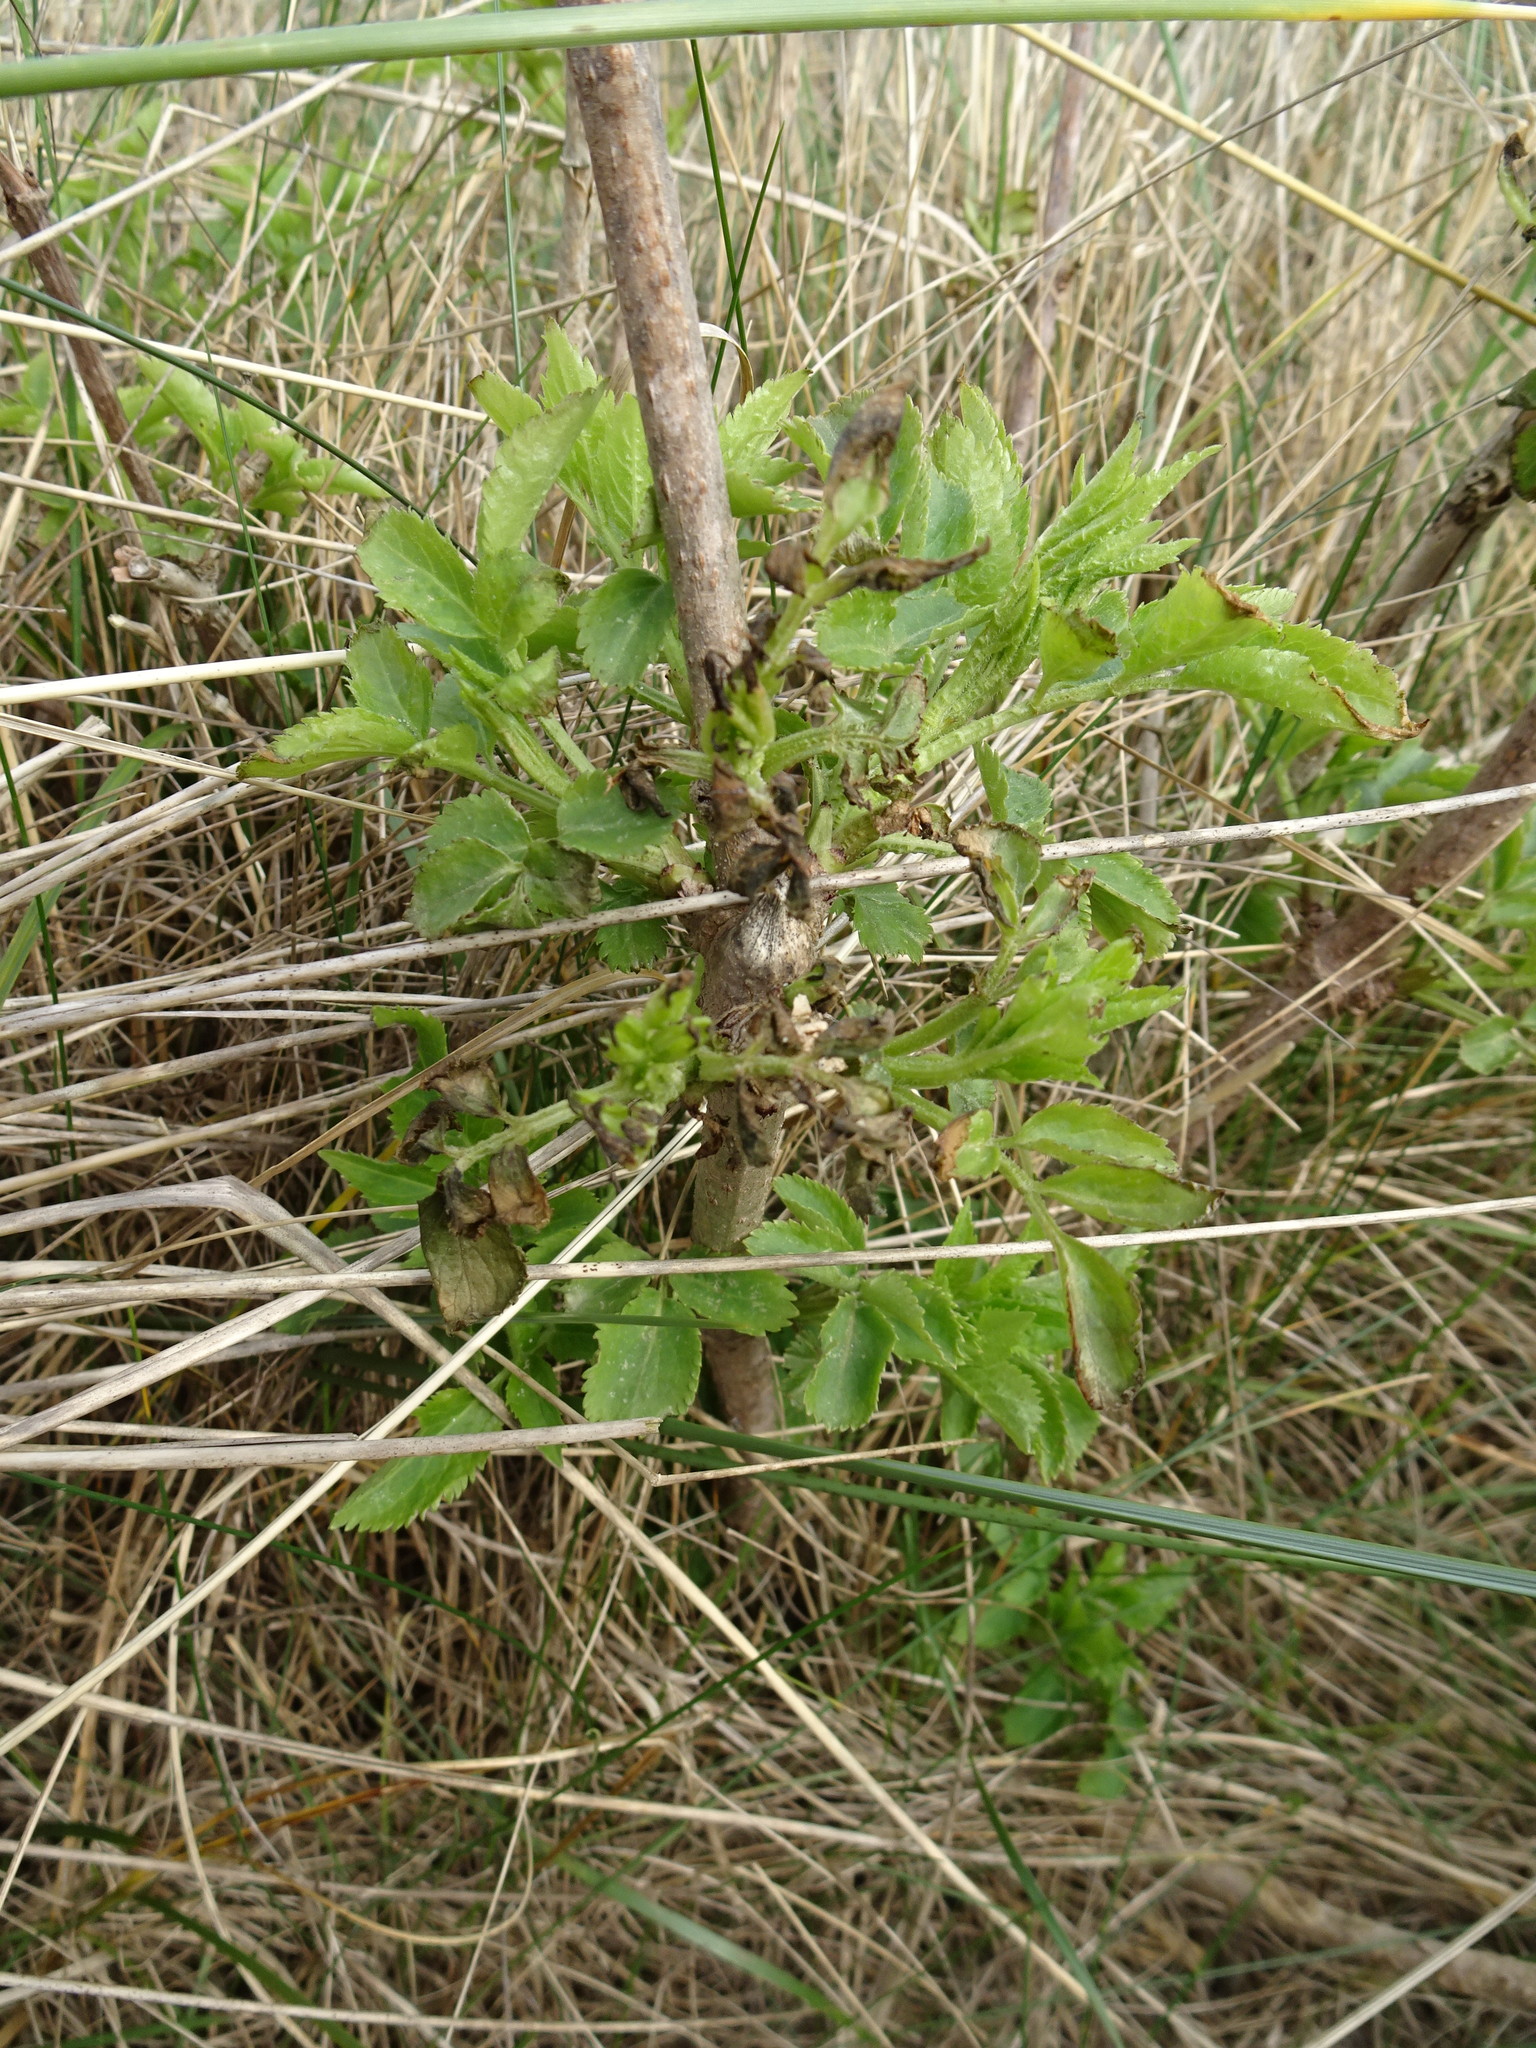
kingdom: Plantae
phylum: Tracheophyta
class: Magnoliopsida
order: Dipsacales
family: Viburnaceae
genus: Sambucus
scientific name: Sambucus nigra
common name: Elder
